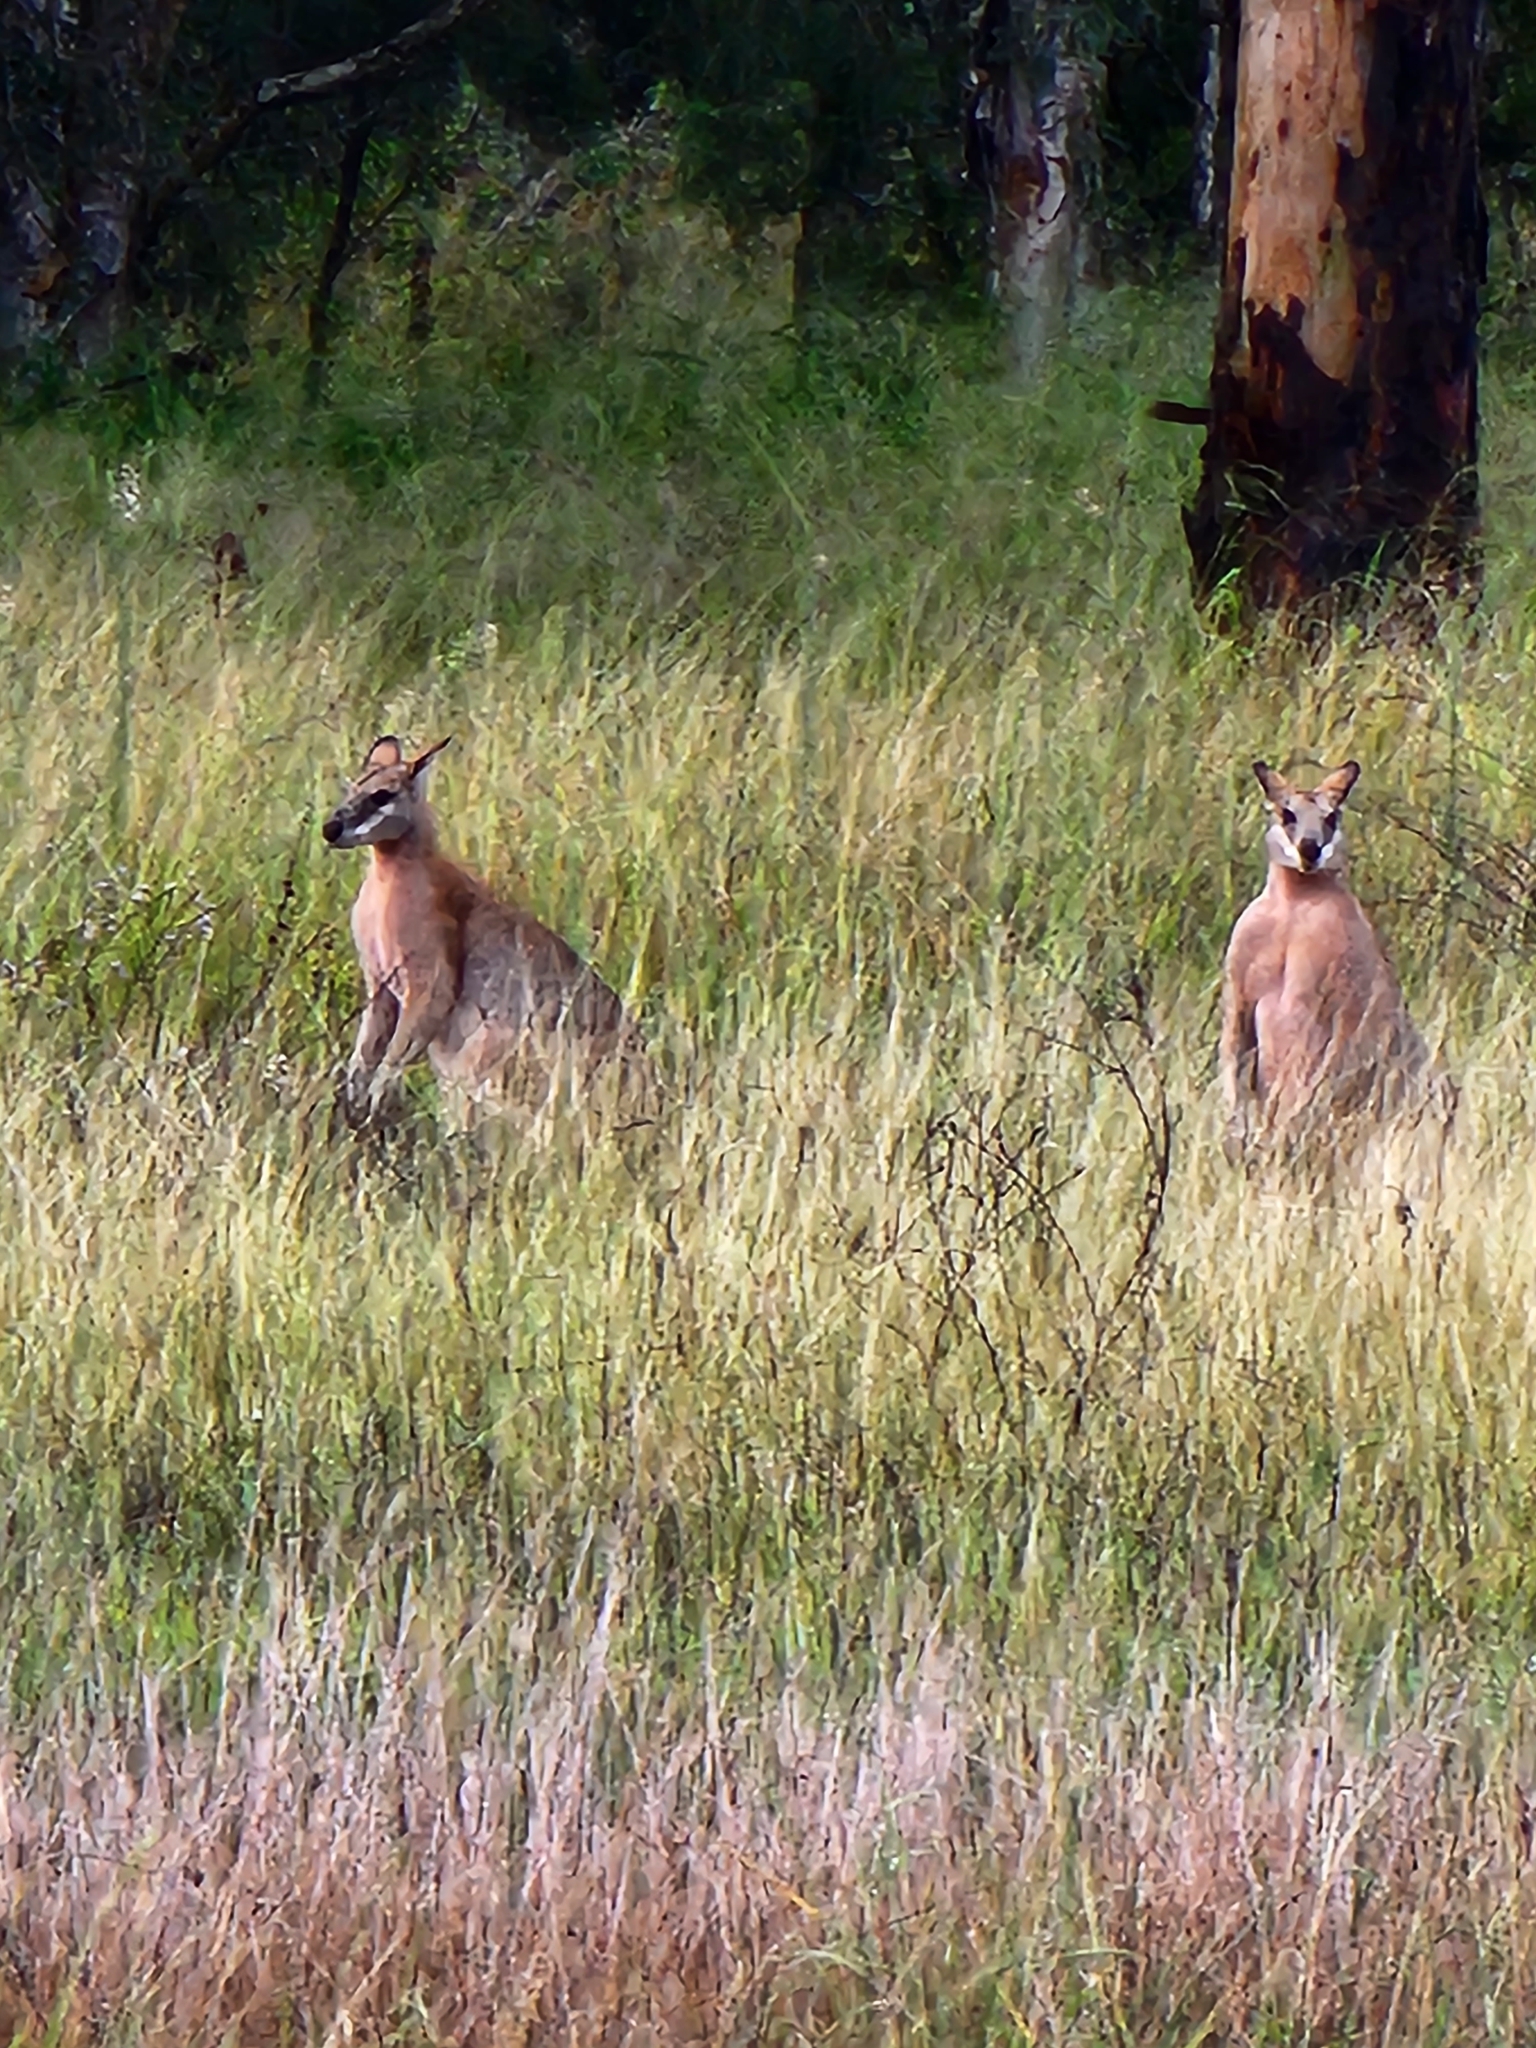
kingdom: Animalia
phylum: Chordata
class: Mammalia
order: Diprotodontia
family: Macropodidae
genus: Macropus
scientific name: Macropus agilis
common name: Agile wallaby
